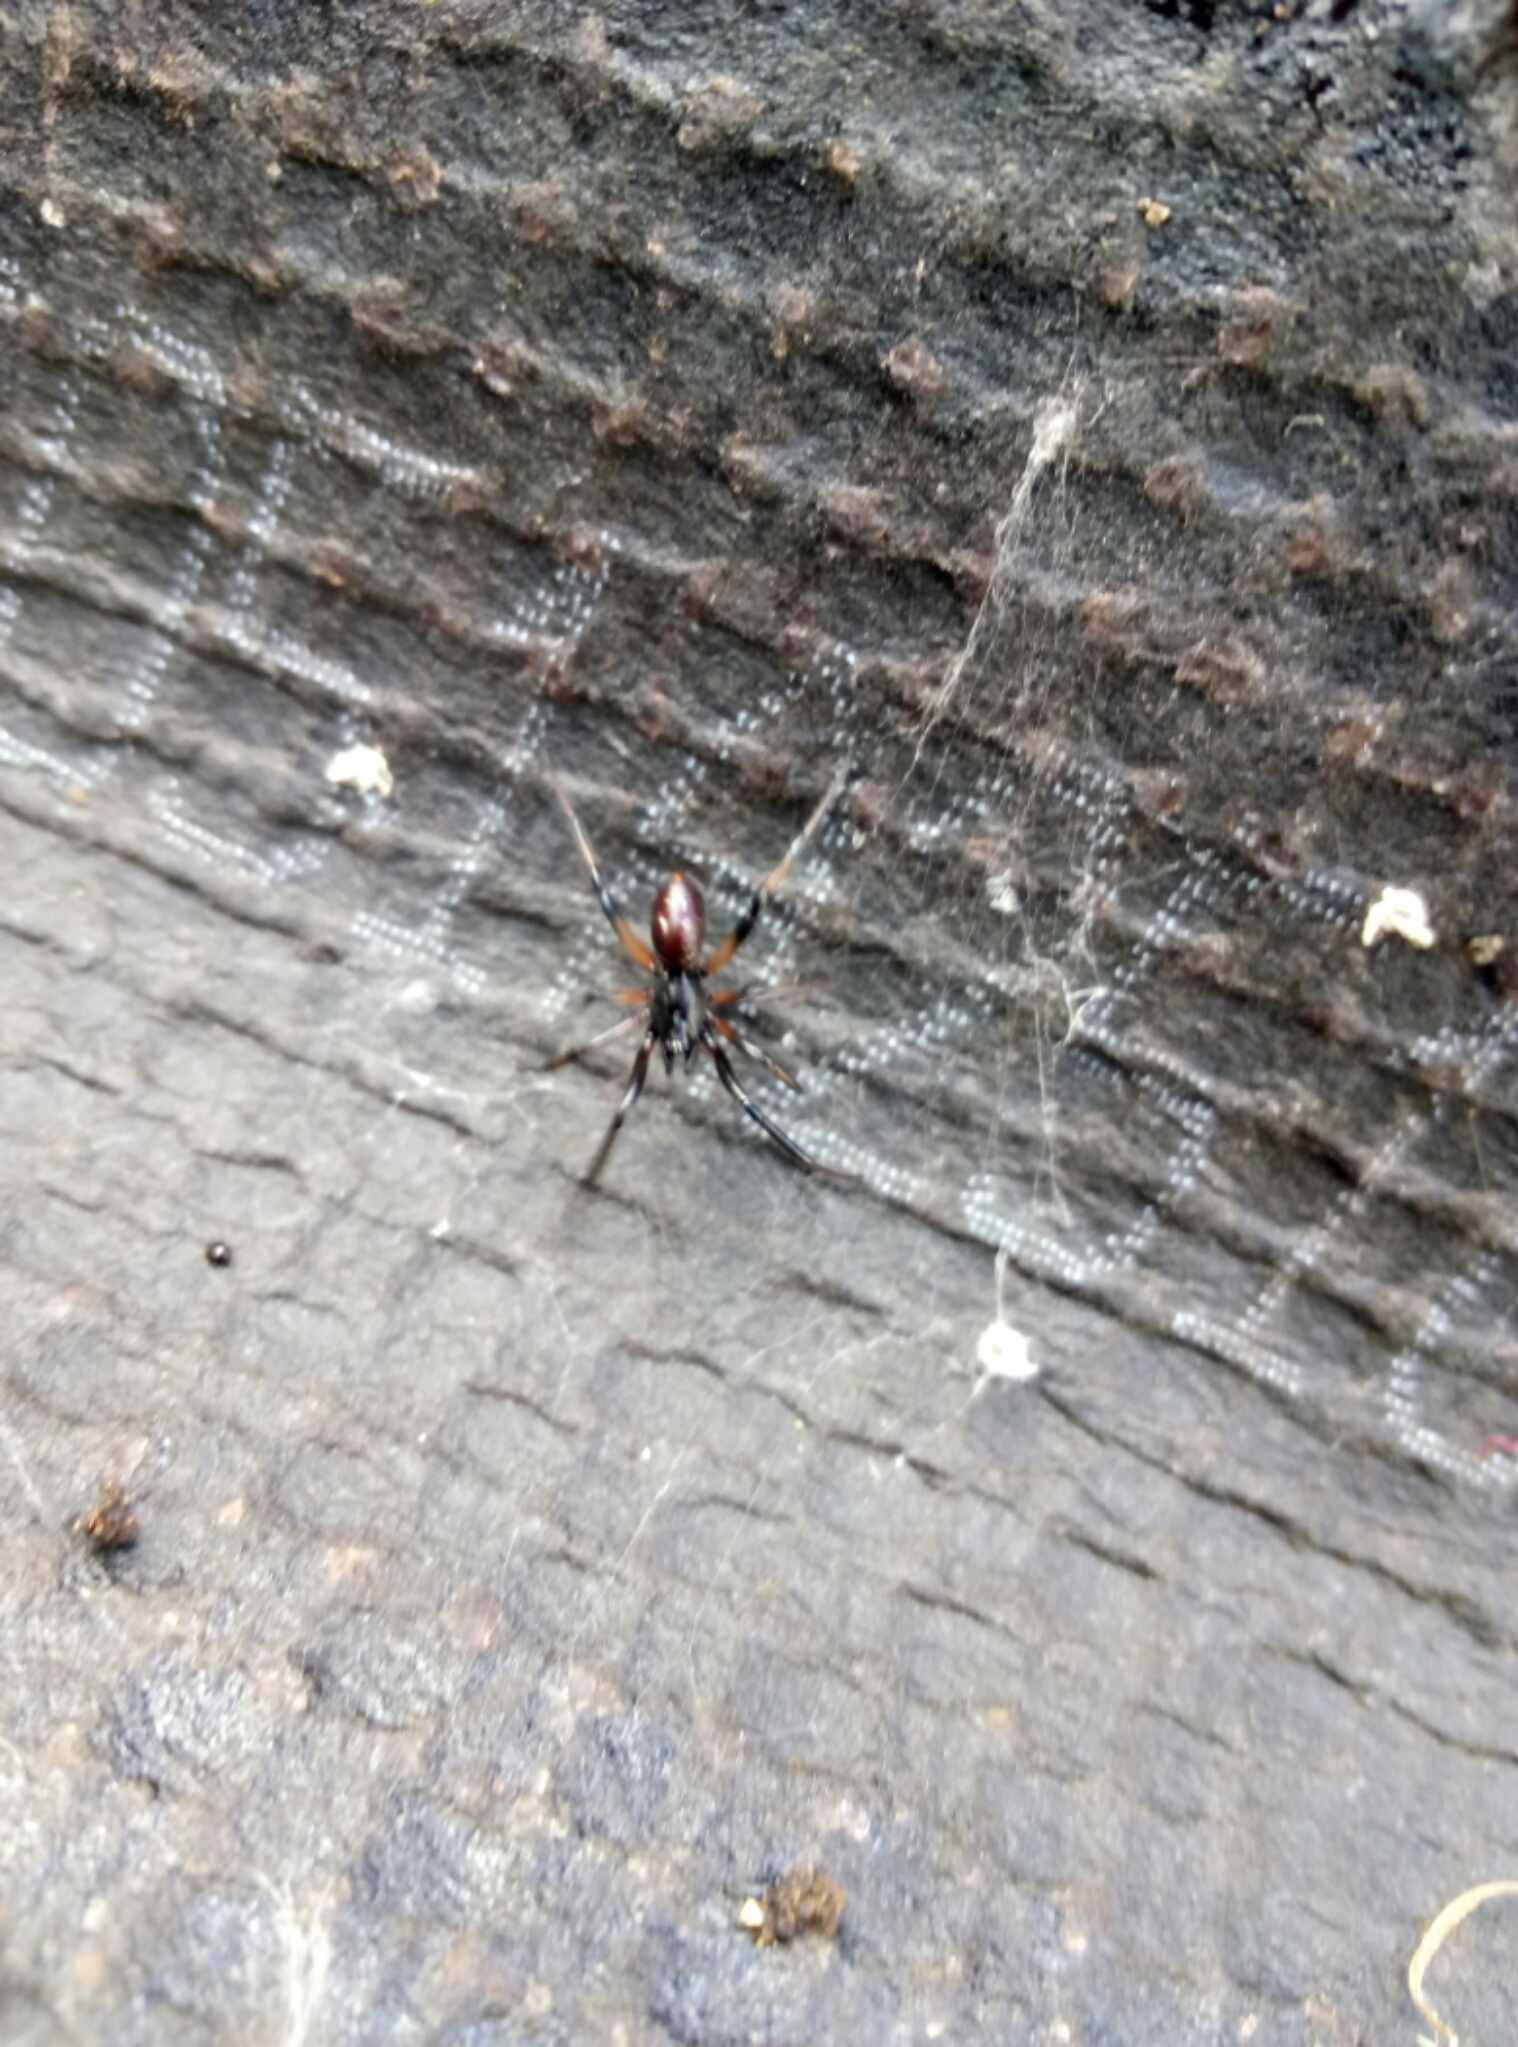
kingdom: Animalia
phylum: Arthropoda
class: Arachnida
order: Araneae
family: Theridiidae
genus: Steatoda
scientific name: Steatoda capensis
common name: Cobweb weaver
